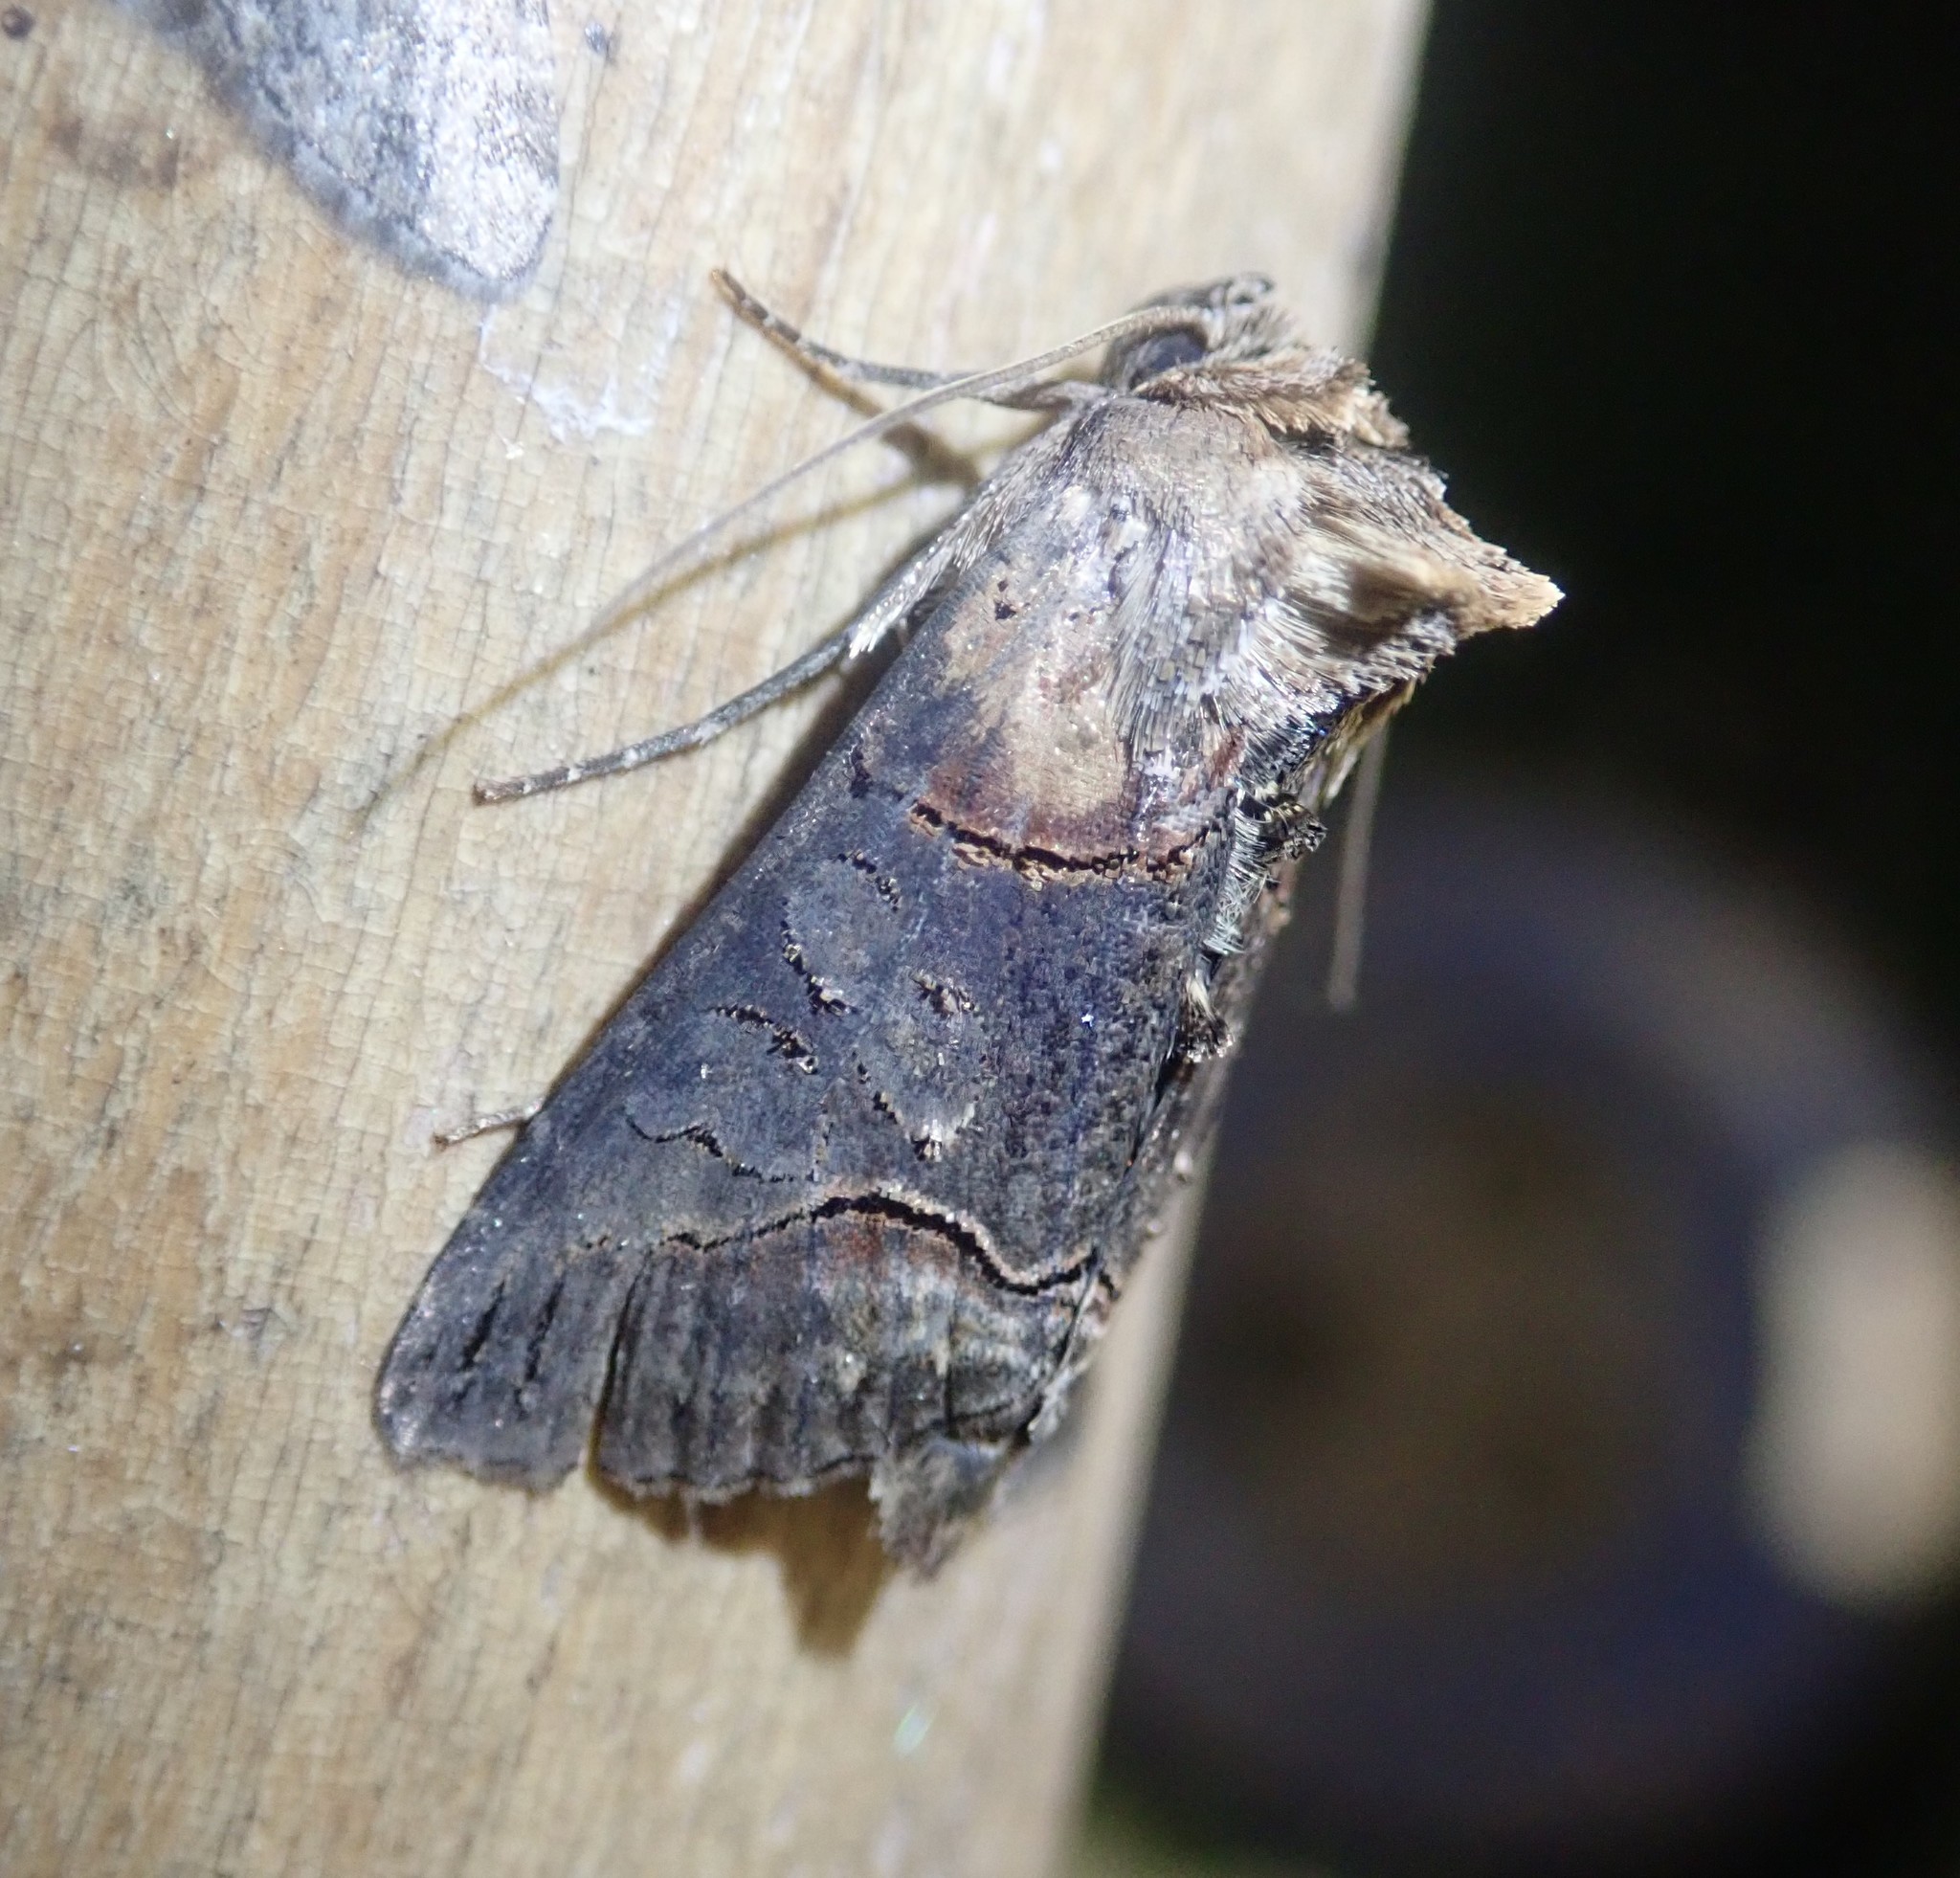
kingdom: Animalia
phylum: Arthropoda
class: Insecta
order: Lepidoptera
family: Noctuidae
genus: Abrostola
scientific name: Abrostola triplasia
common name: Dark spectacle
